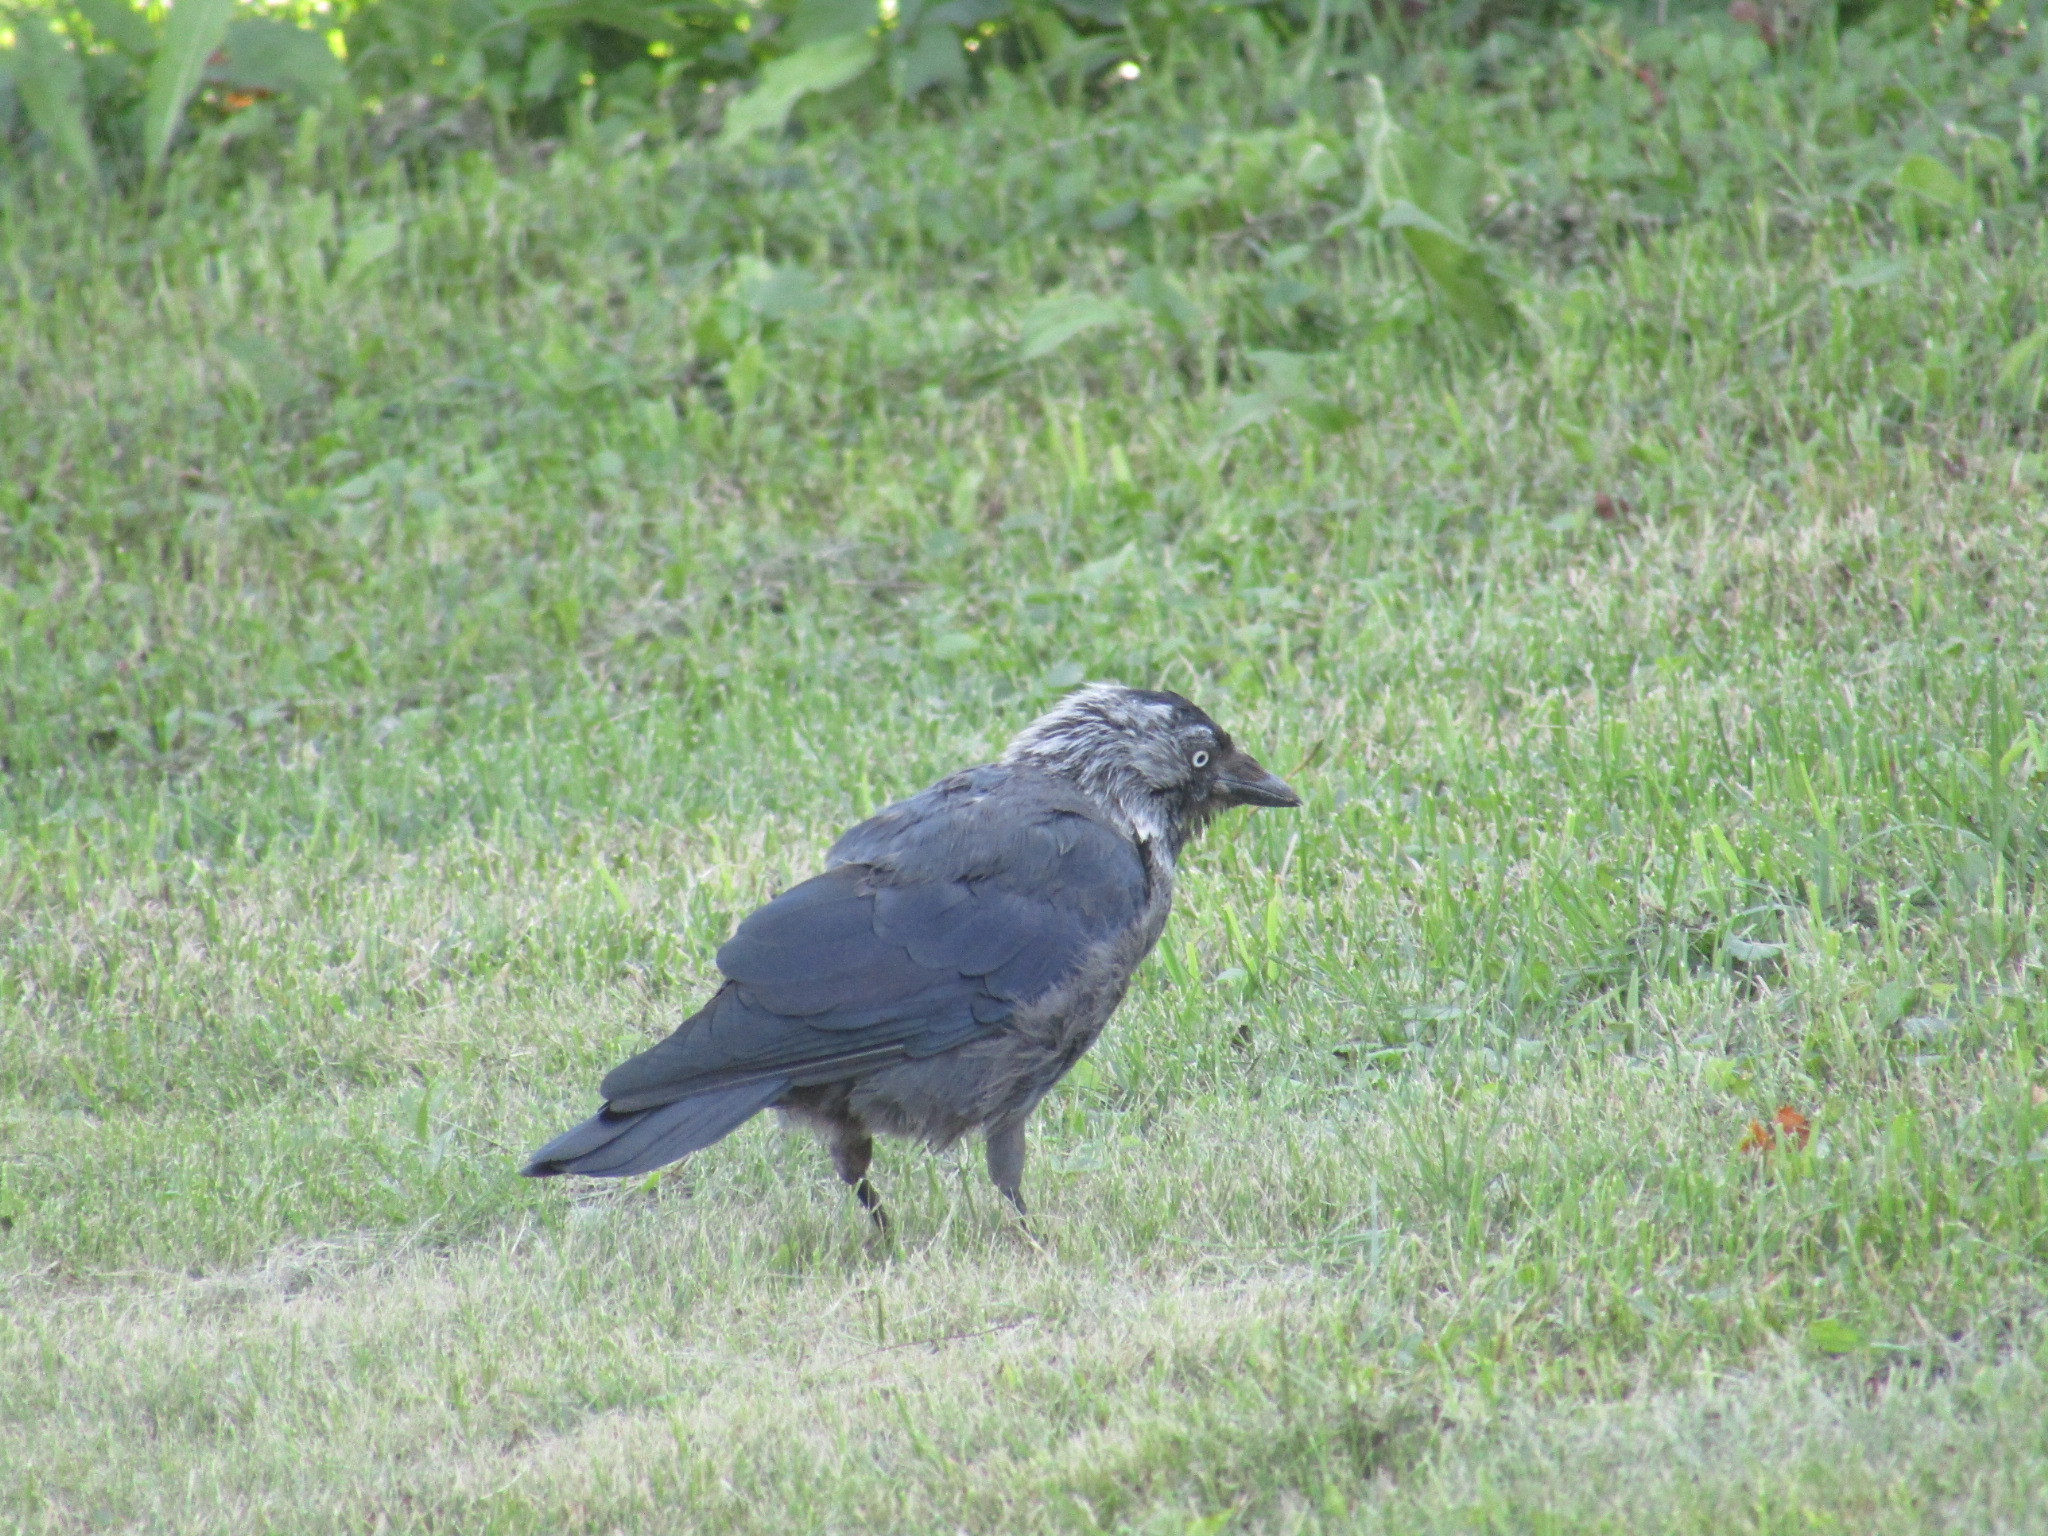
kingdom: Animalia
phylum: Chordata
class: Aves
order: Passeriformes
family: Corvidae
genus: Coloeus
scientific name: Coloeus monedula
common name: Western jackdaw
